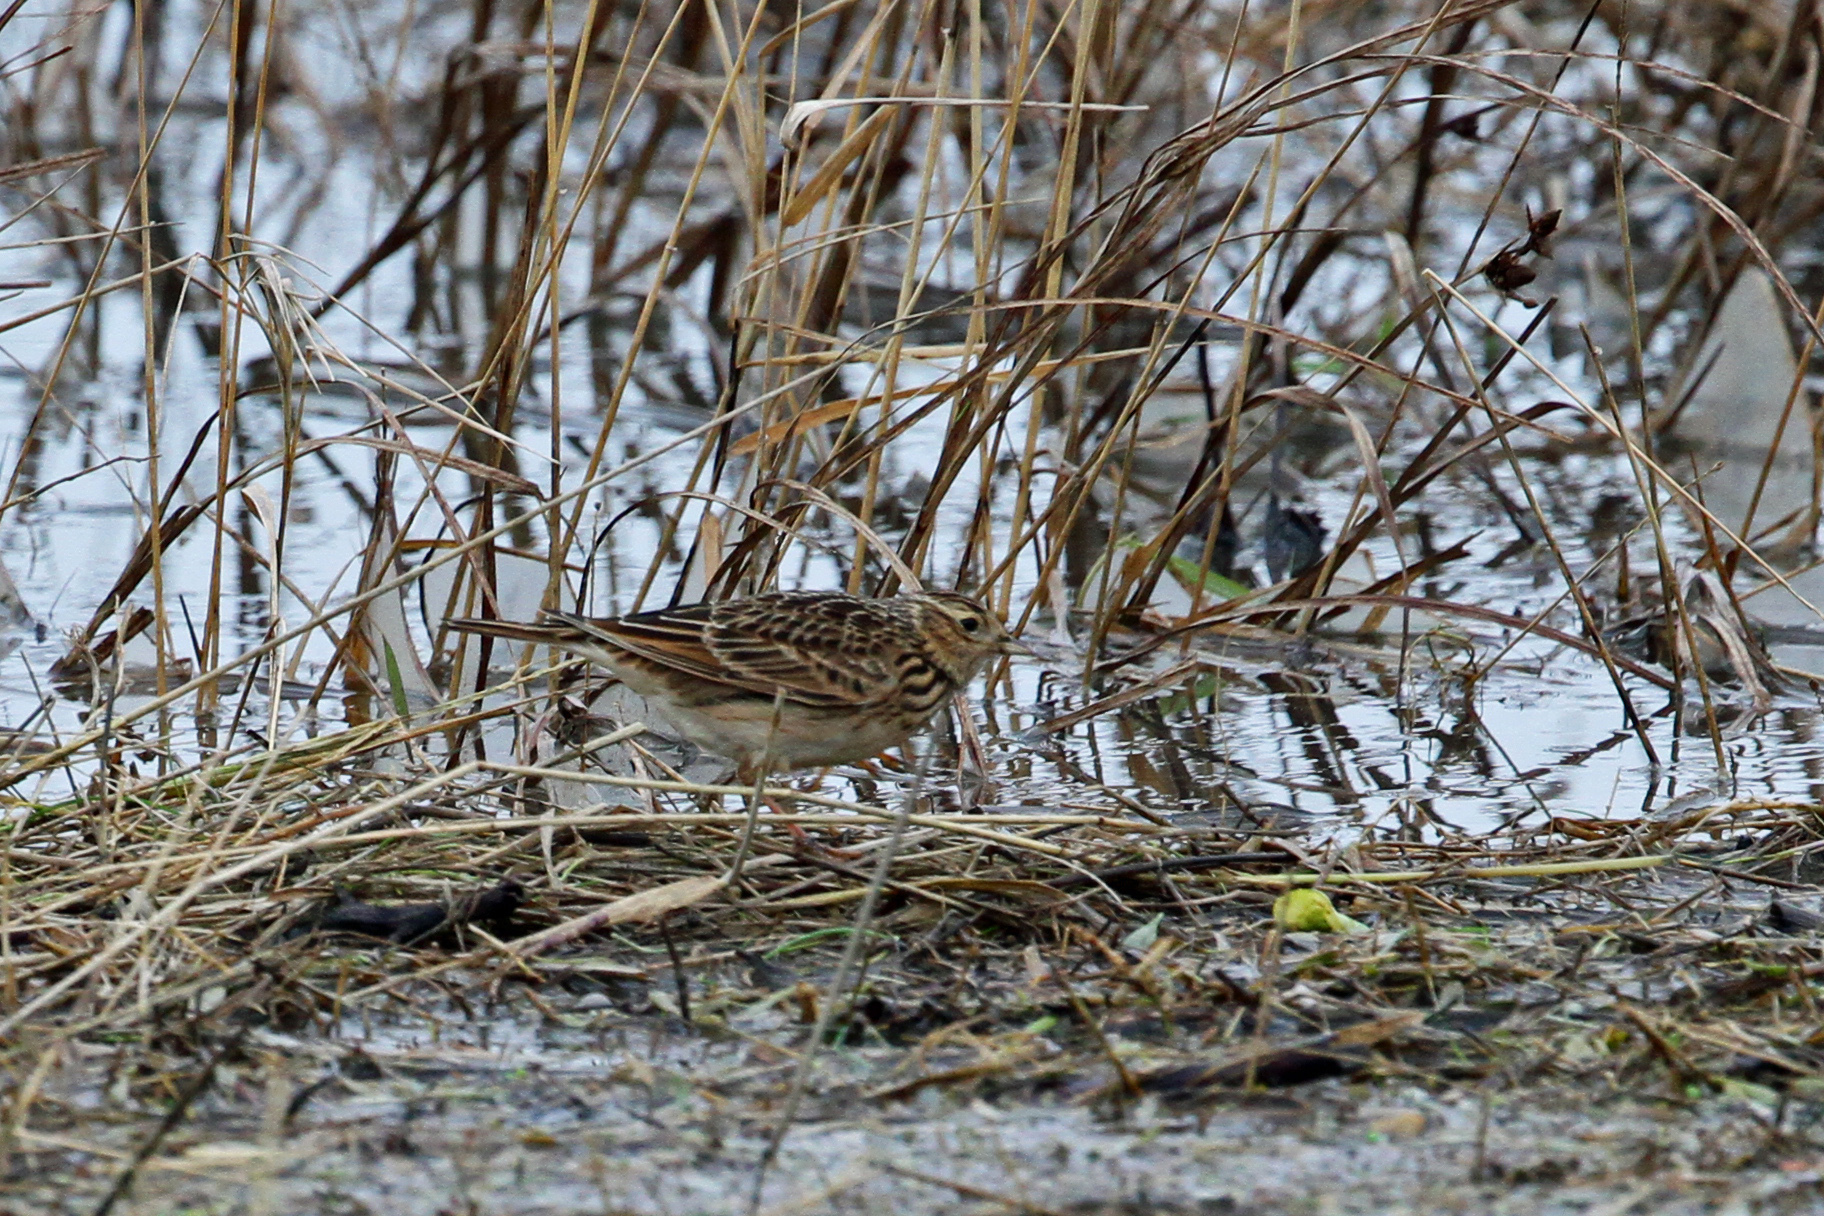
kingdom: Animalia
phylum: Chordata
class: Aves
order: Passeriformes
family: Alaudidae
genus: Alauda
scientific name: Alauda arvensis
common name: Eurasian skylark
